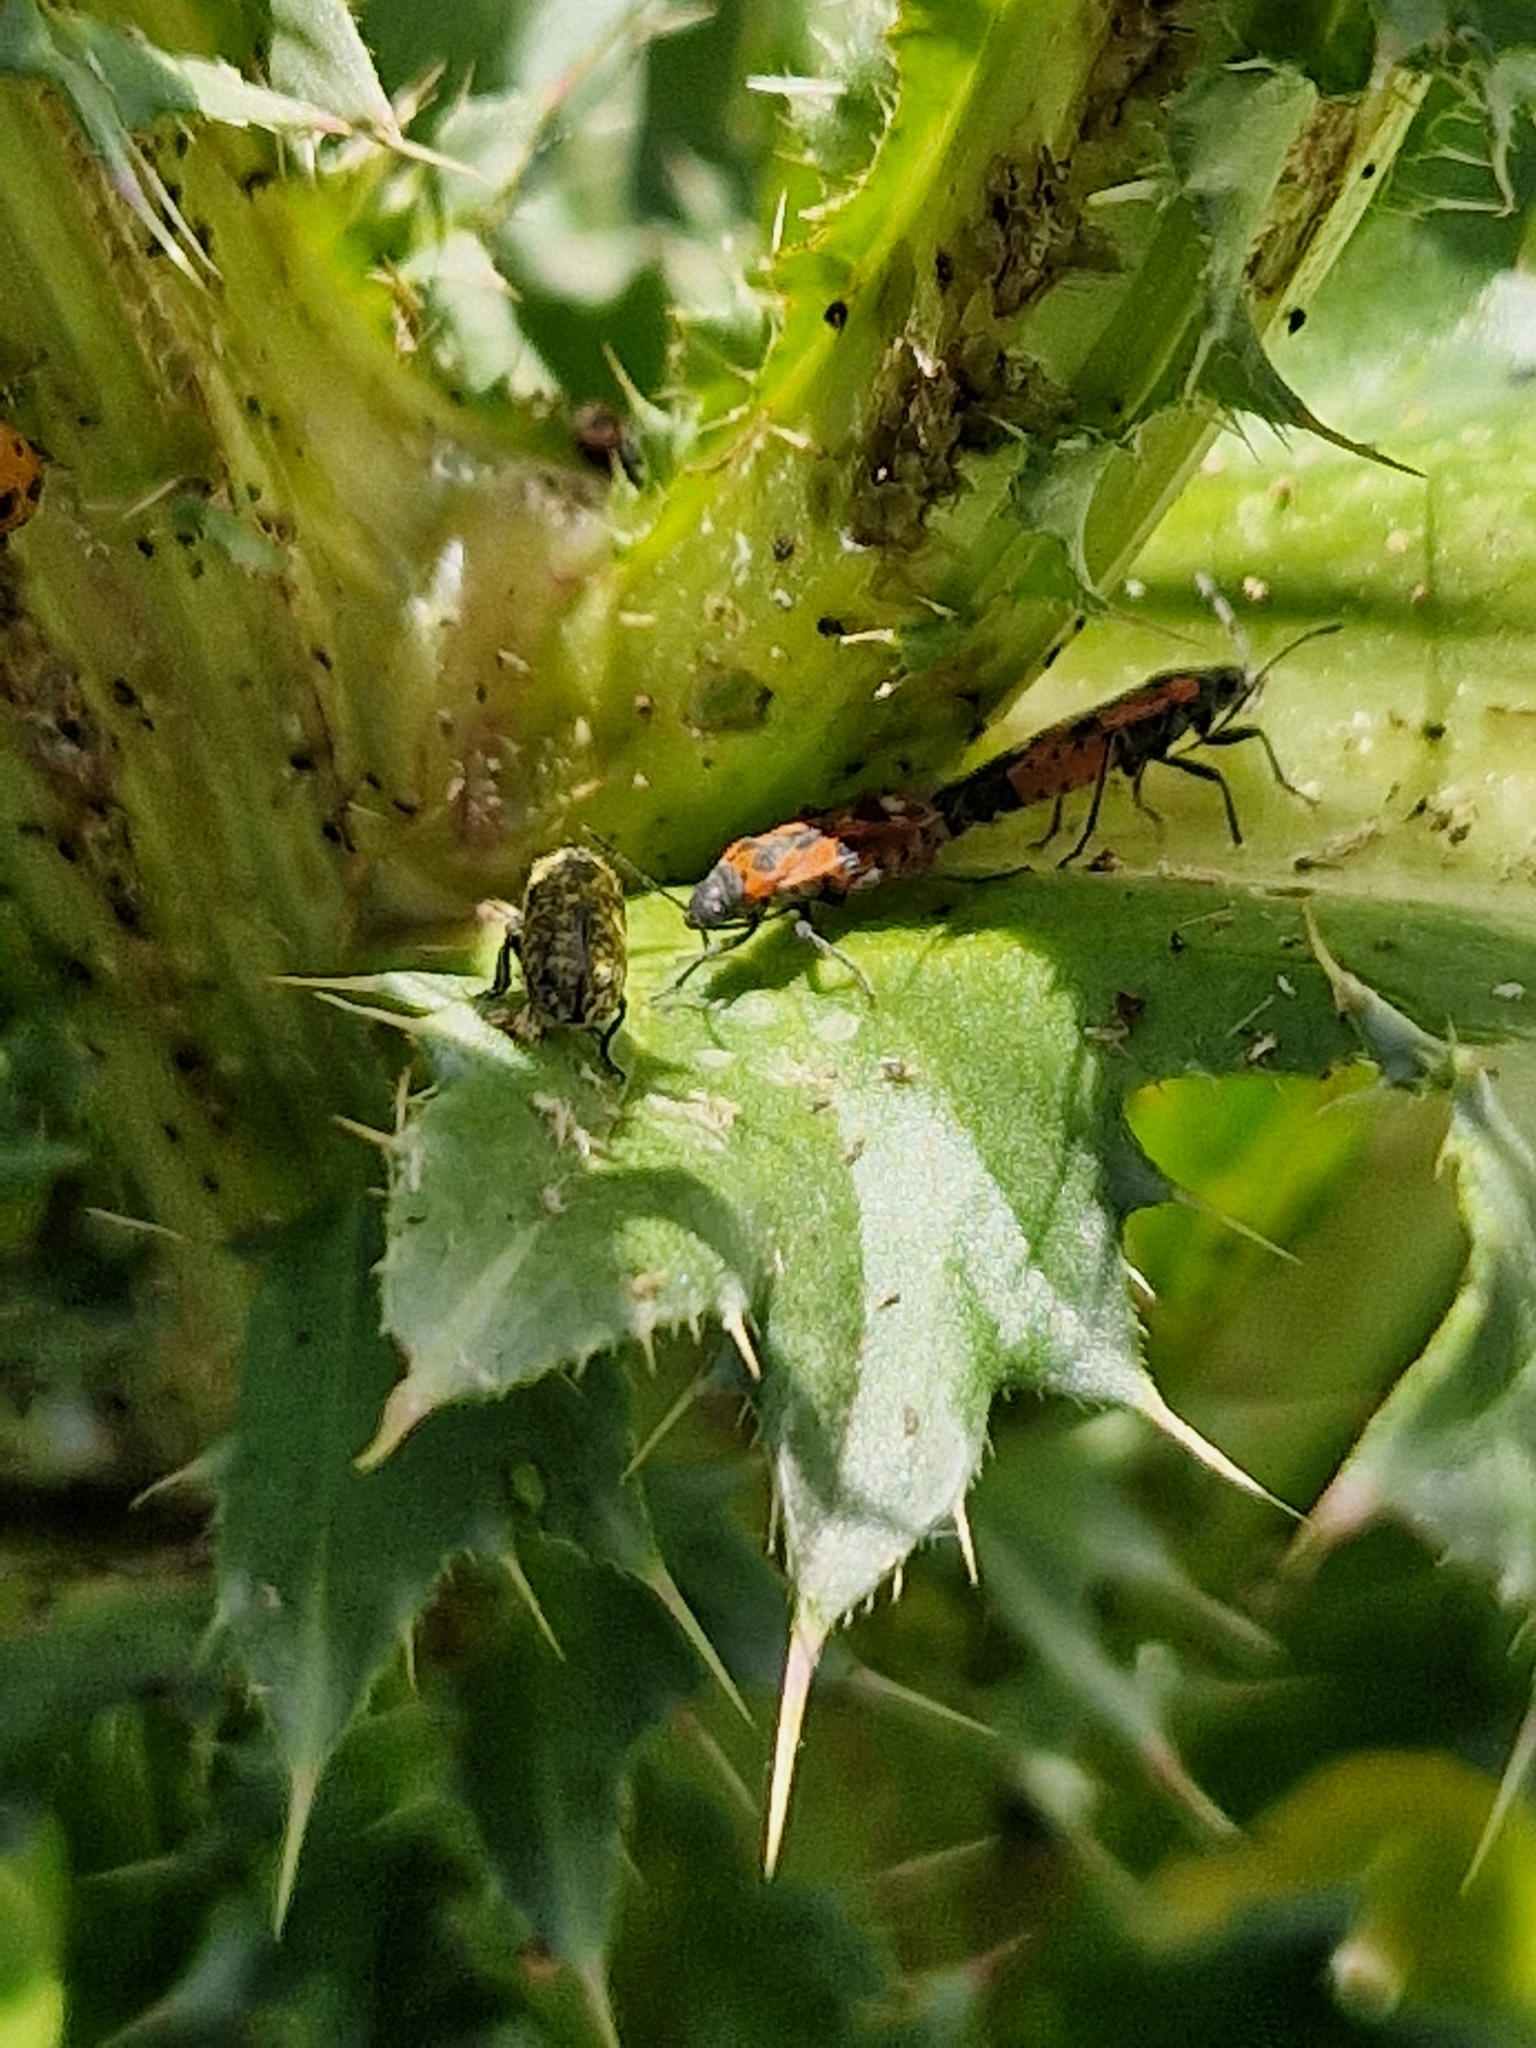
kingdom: Animalia
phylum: Arthropoda
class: Insecta
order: Hemiptera
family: Lygaeidae
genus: Lygaeus
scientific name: Lygaeus alboornatus
